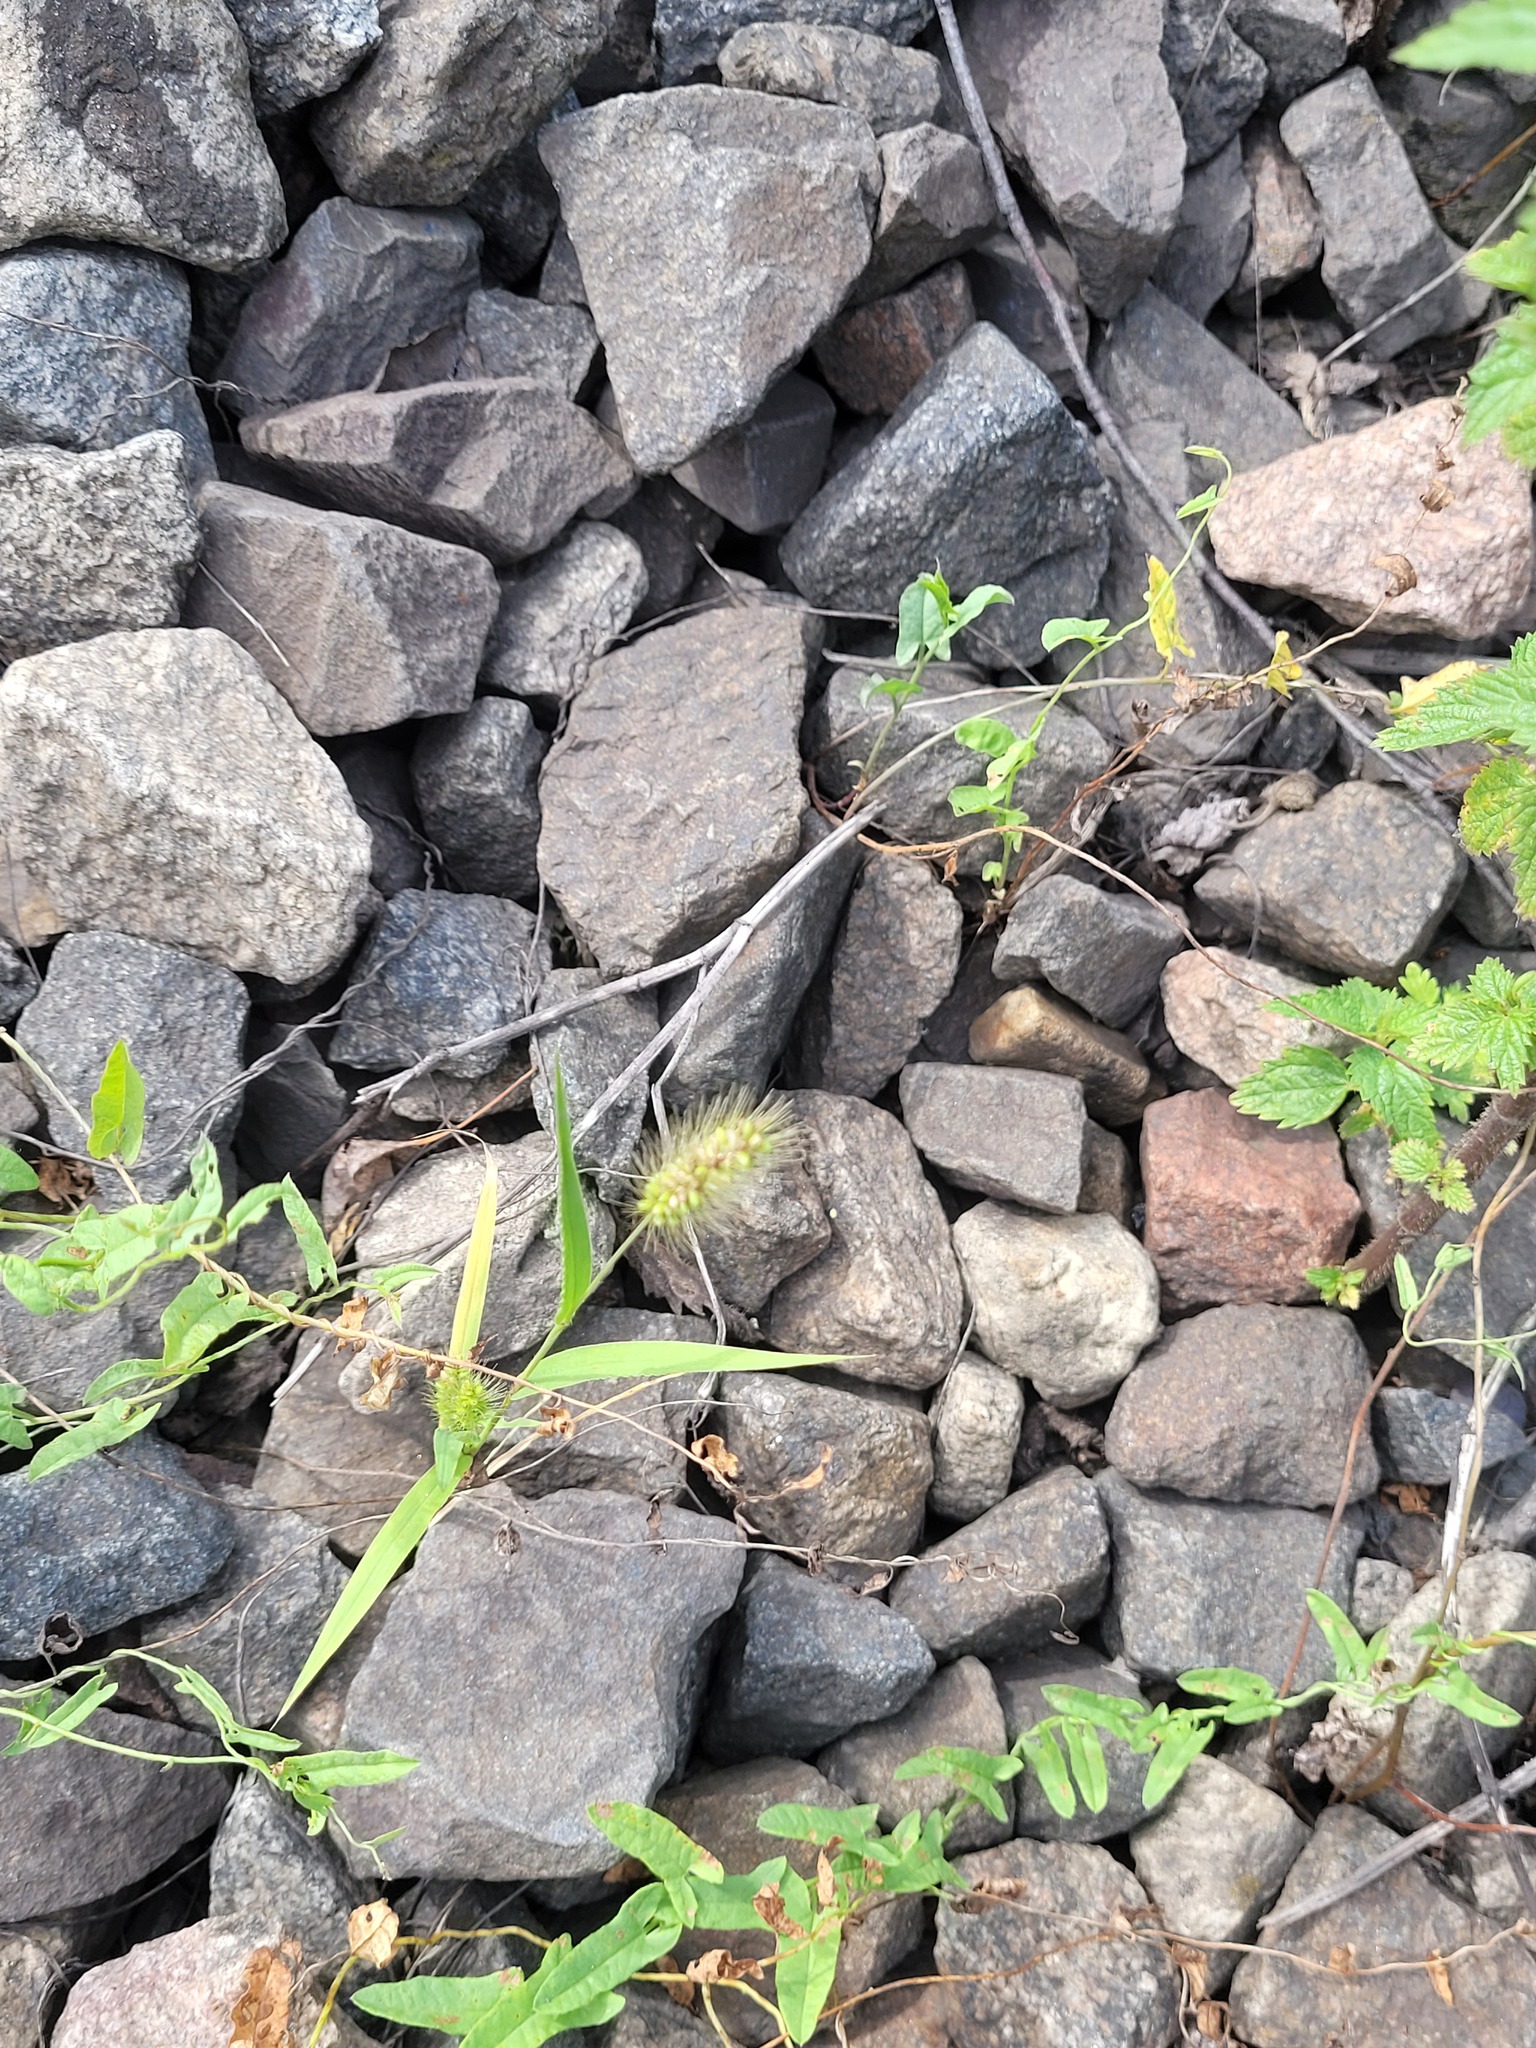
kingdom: Plantae
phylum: Tracheophyta
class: Liliopsida
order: Poales
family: Poaceae
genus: Setaria
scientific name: Setaria viridis
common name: Green bristlegrass
